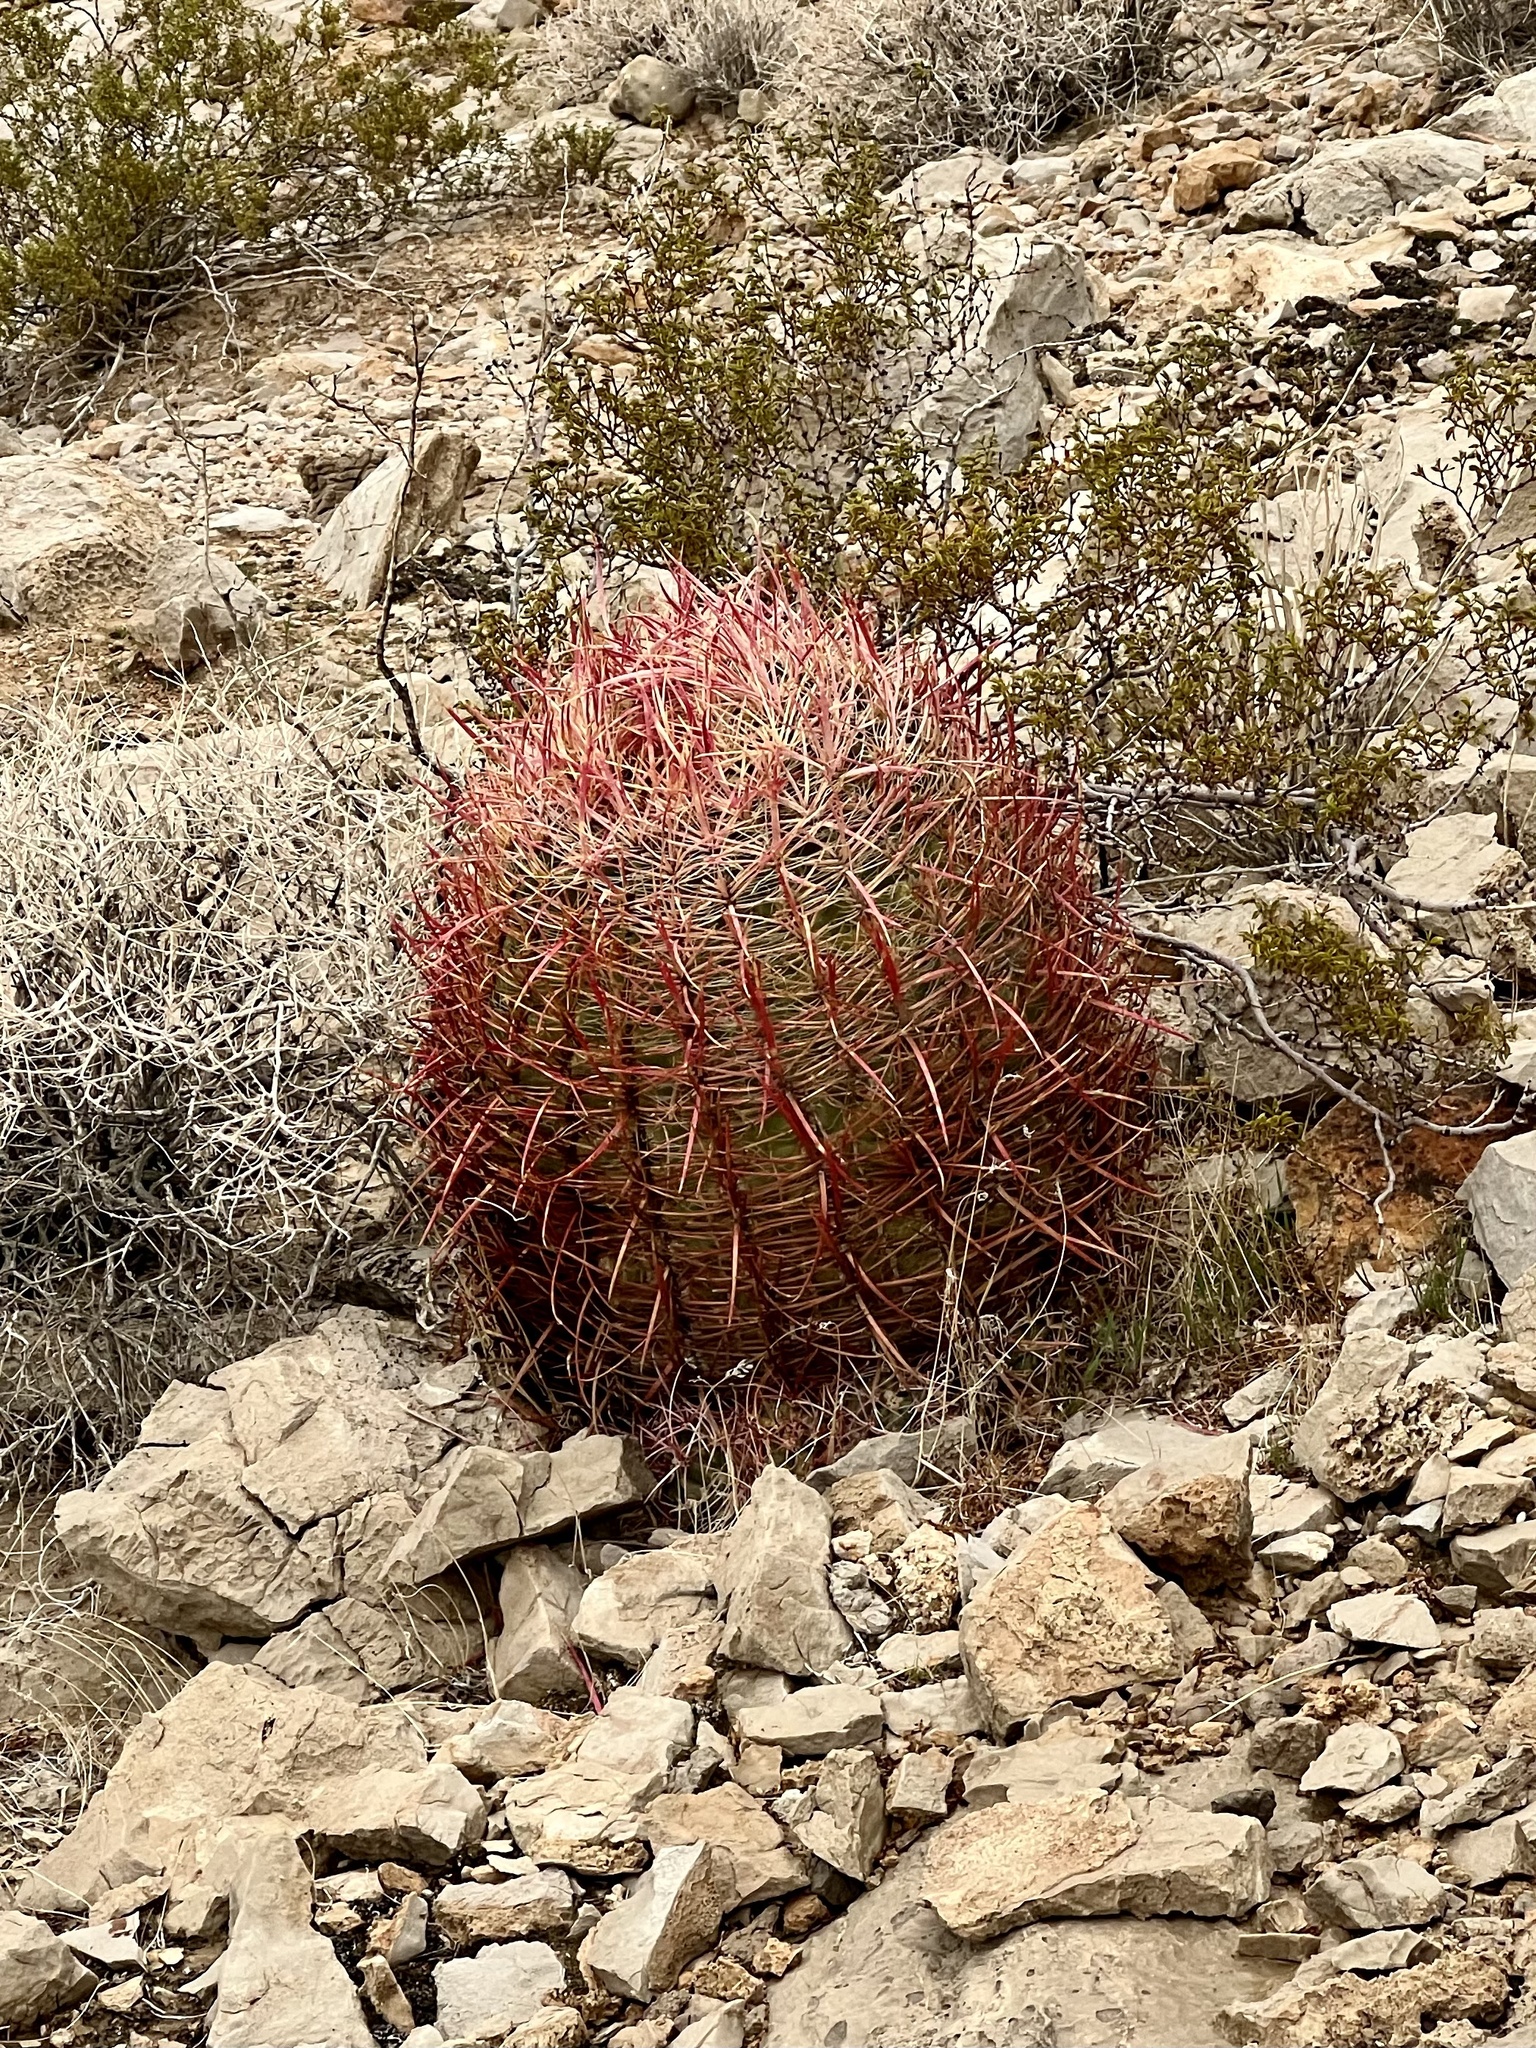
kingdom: Plantae
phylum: Tracheophyta
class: Magnoliopsida
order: Caryophyllales
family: Cactaceae
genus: Ferocactus
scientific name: Ferocactus cylindraceus
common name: California barrel cactus
